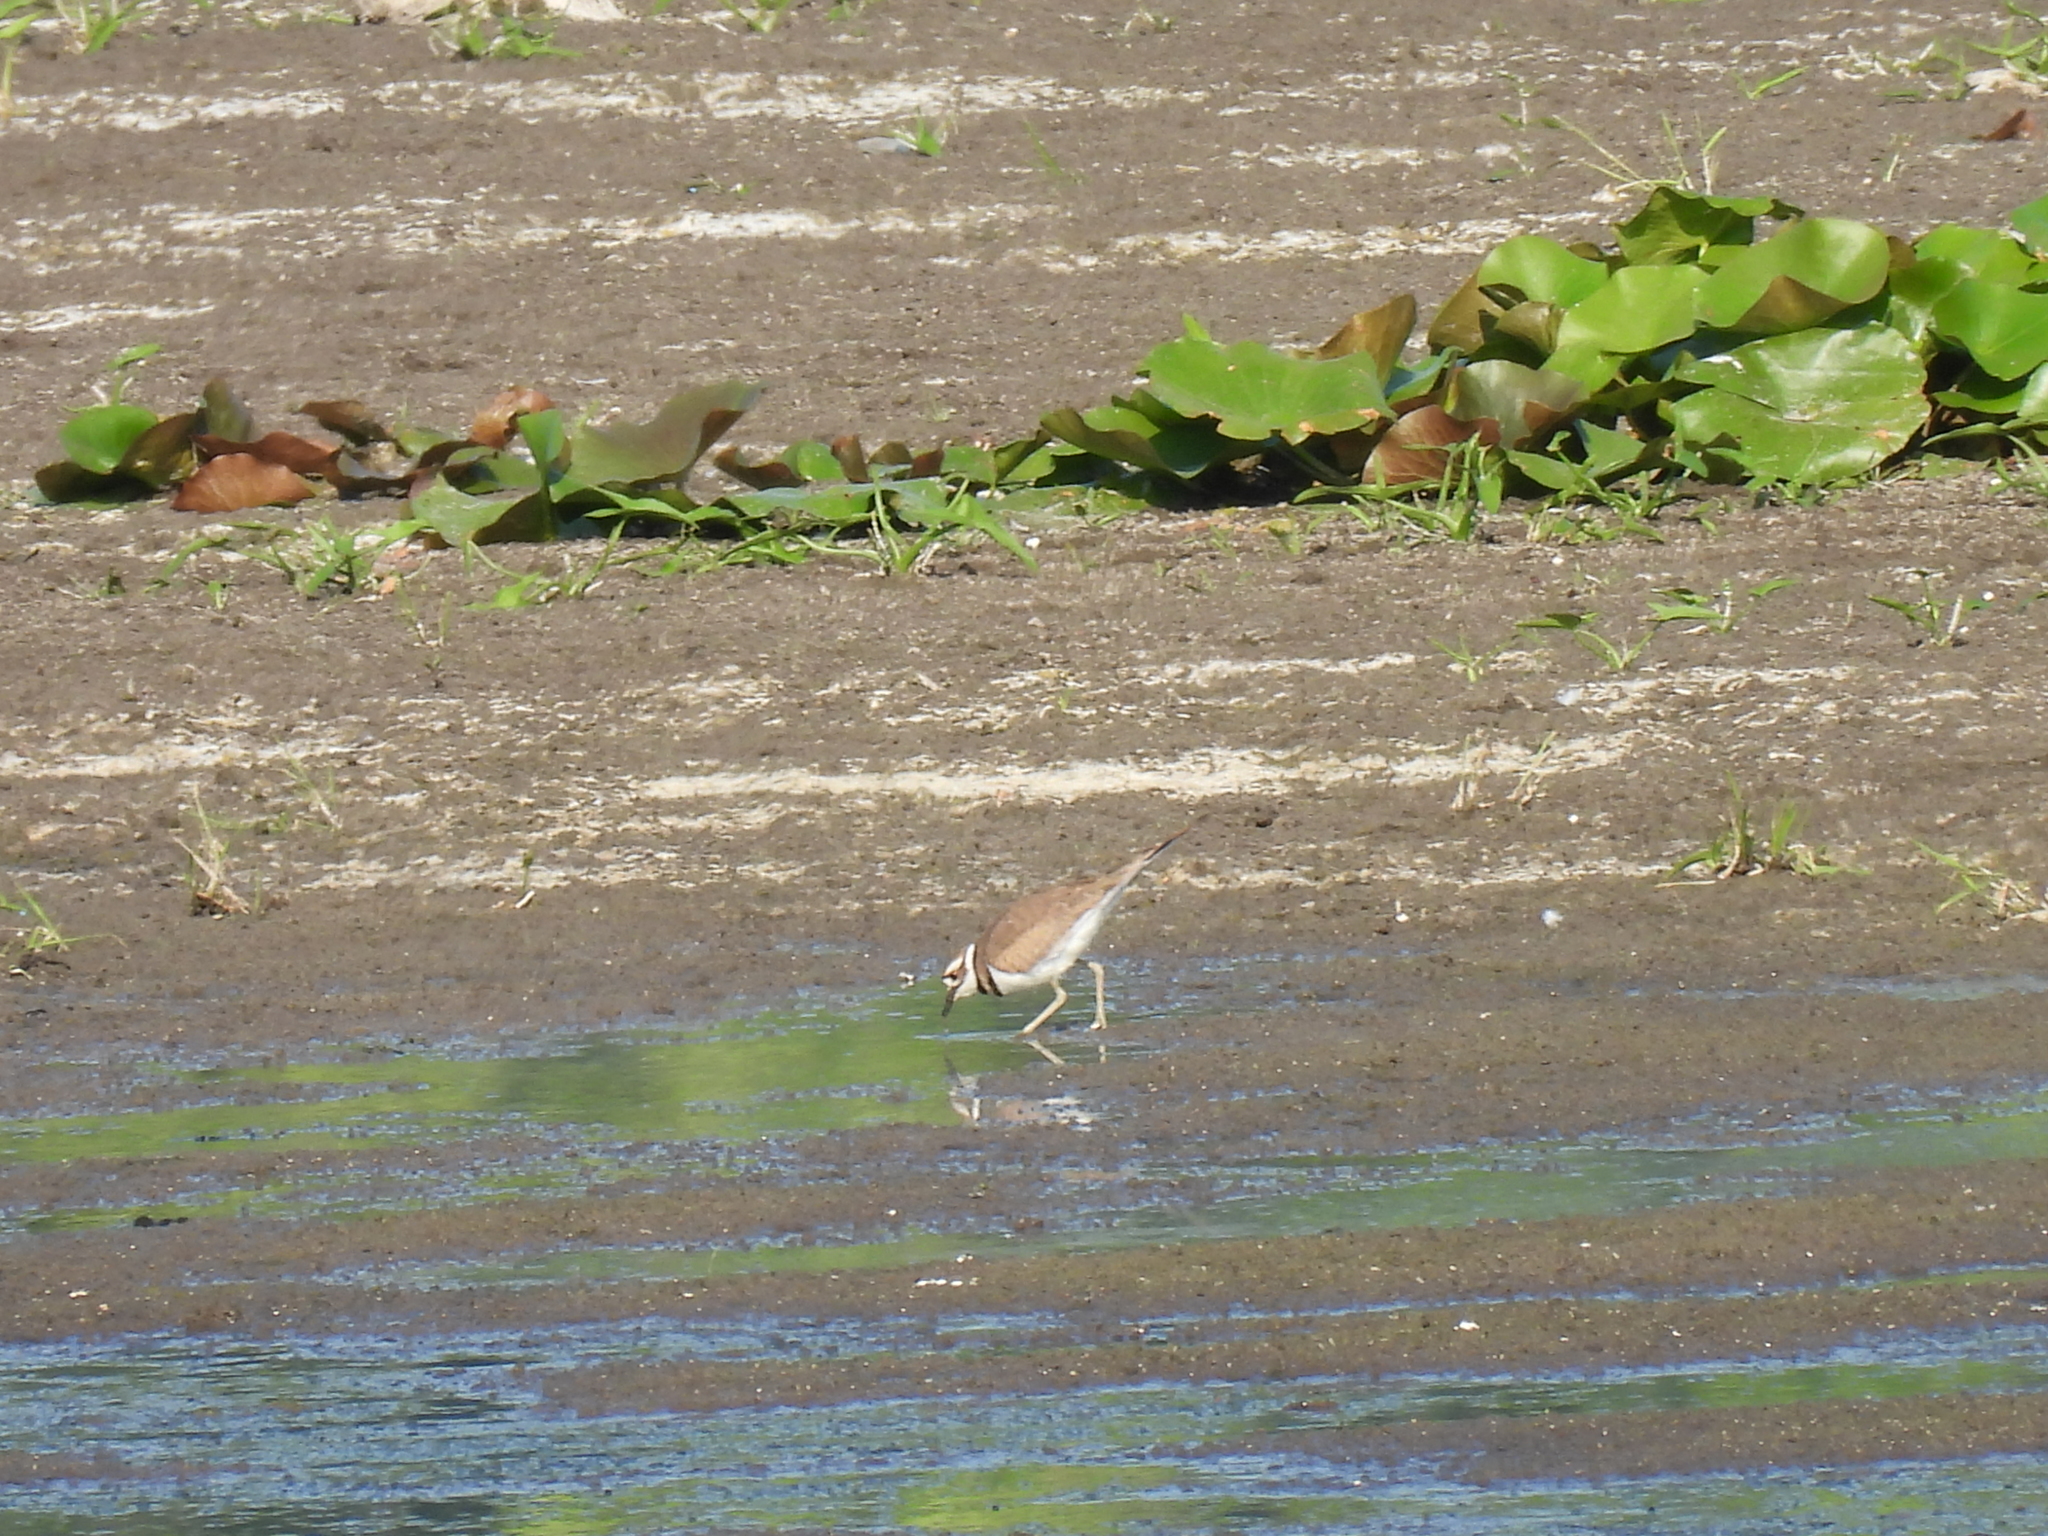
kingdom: Animalia
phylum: Chordata
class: Aves
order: Charadriiformes
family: Charadriidae
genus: Charadrius
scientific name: Charadrius vociferus
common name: Killdeer
